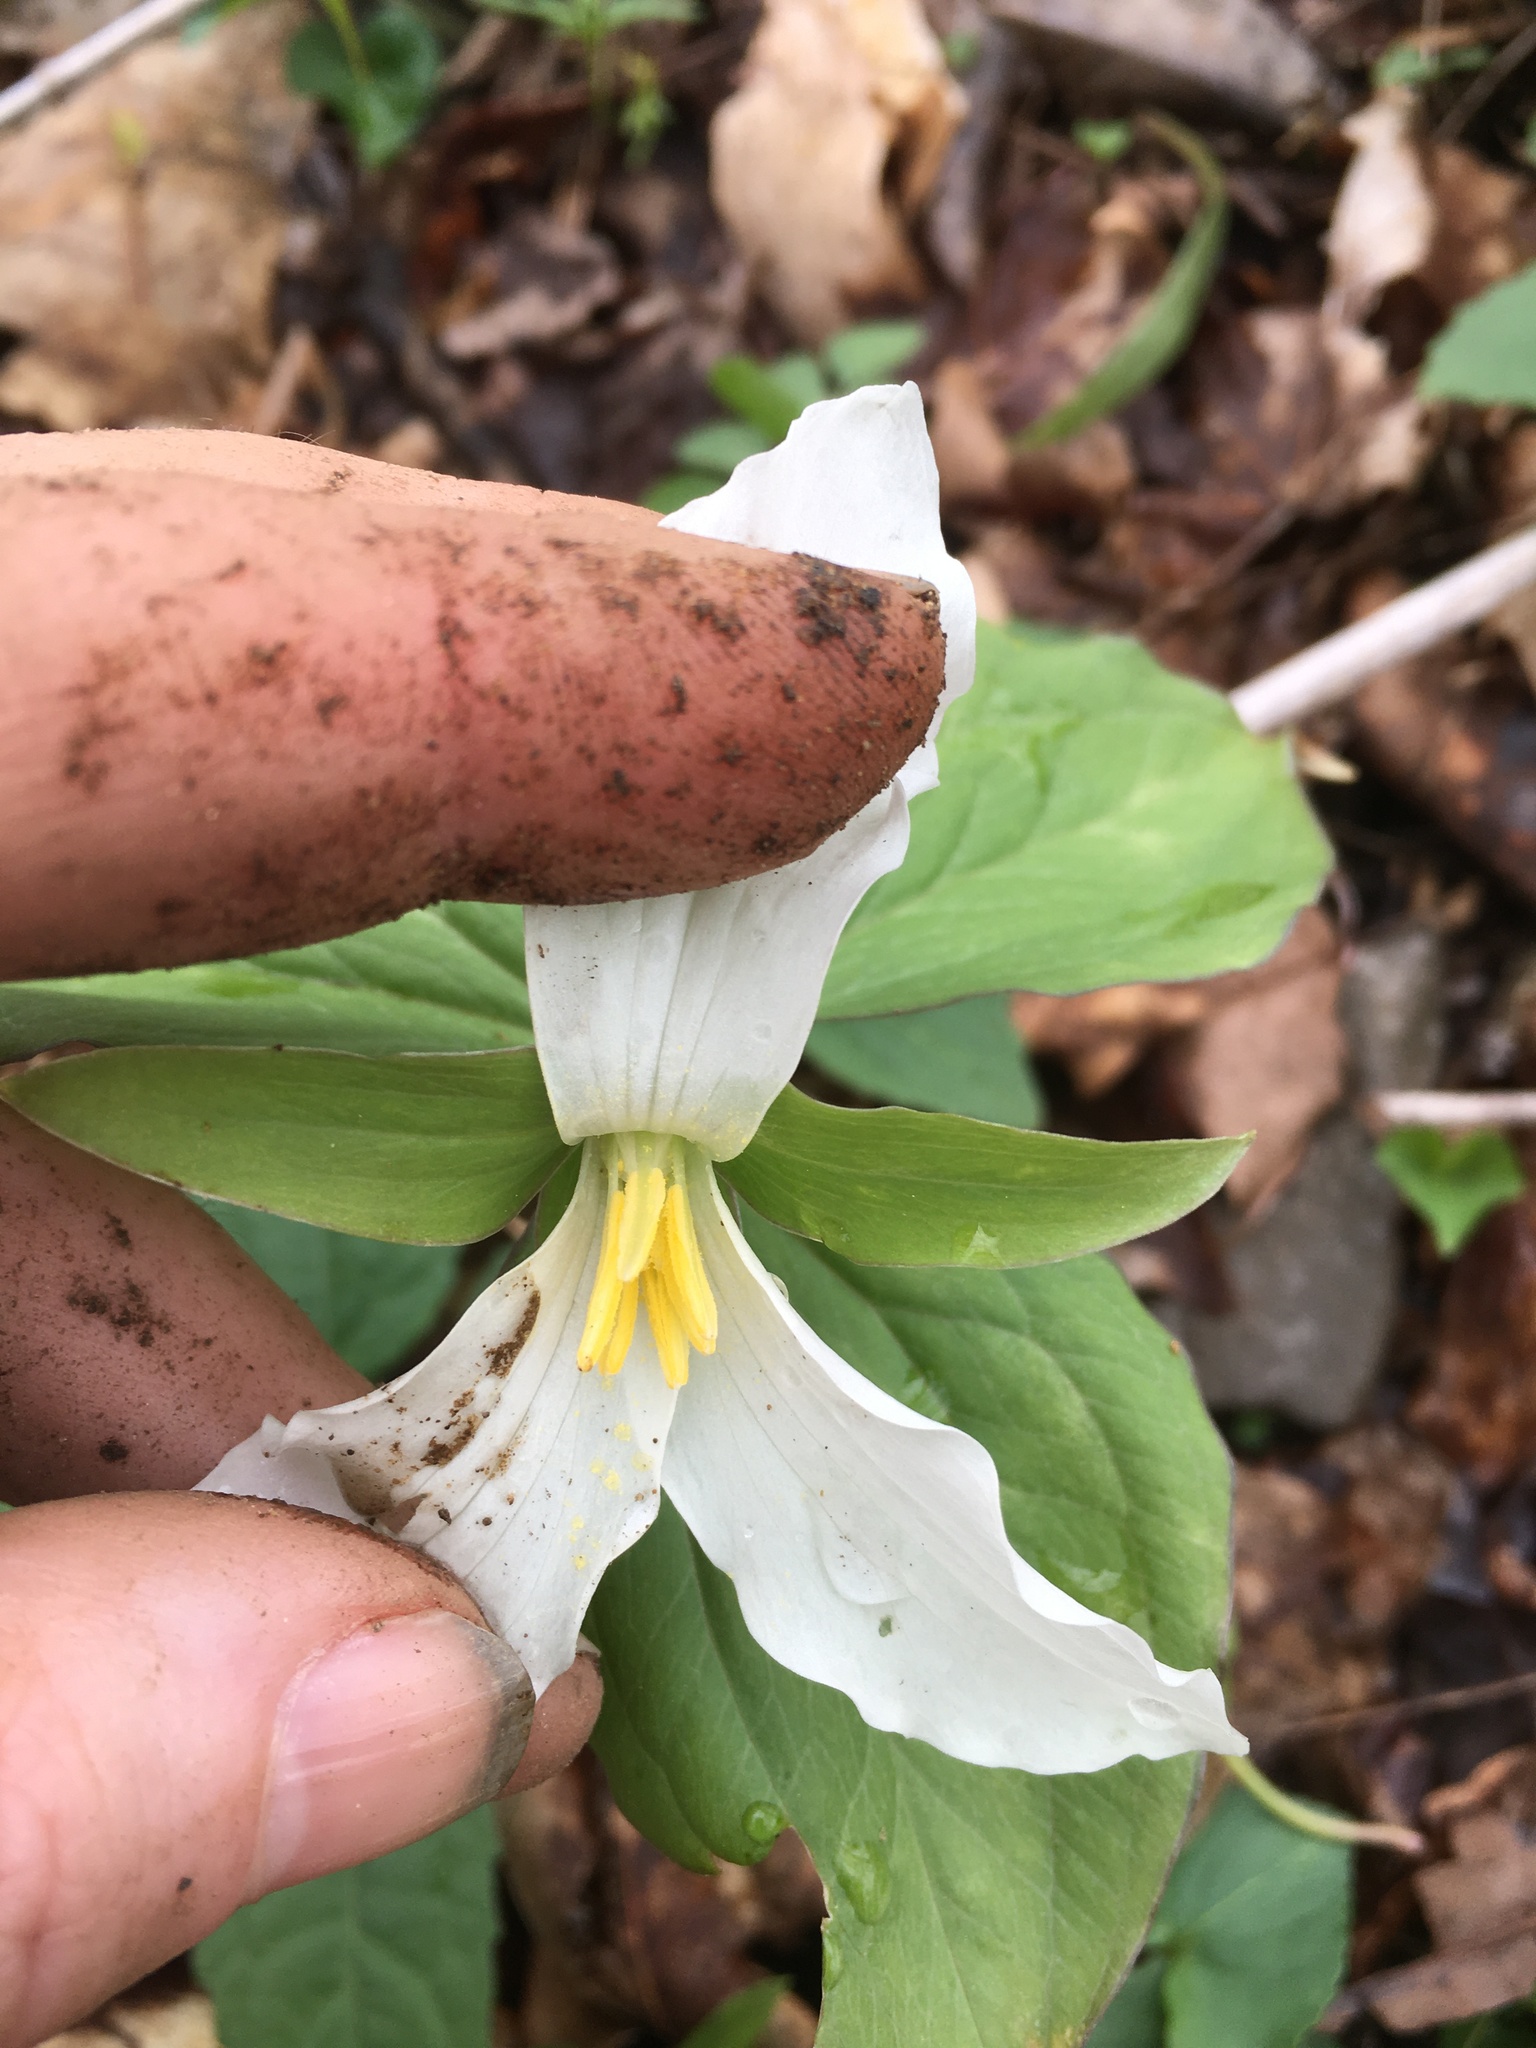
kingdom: Plantae
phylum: Tracheophyta
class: Liliopsida
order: Liliales
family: Melanthiaceae
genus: Trillium
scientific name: Trillium grandiflorum
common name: Great white trillium
